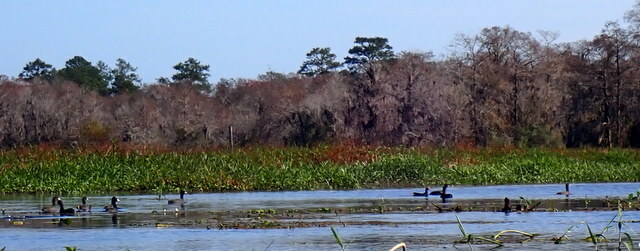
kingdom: Animalia
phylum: Chordata
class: Aves
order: Gruiformes
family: Rallidae
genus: Fulica
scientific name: Fulica americana
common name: American coot
